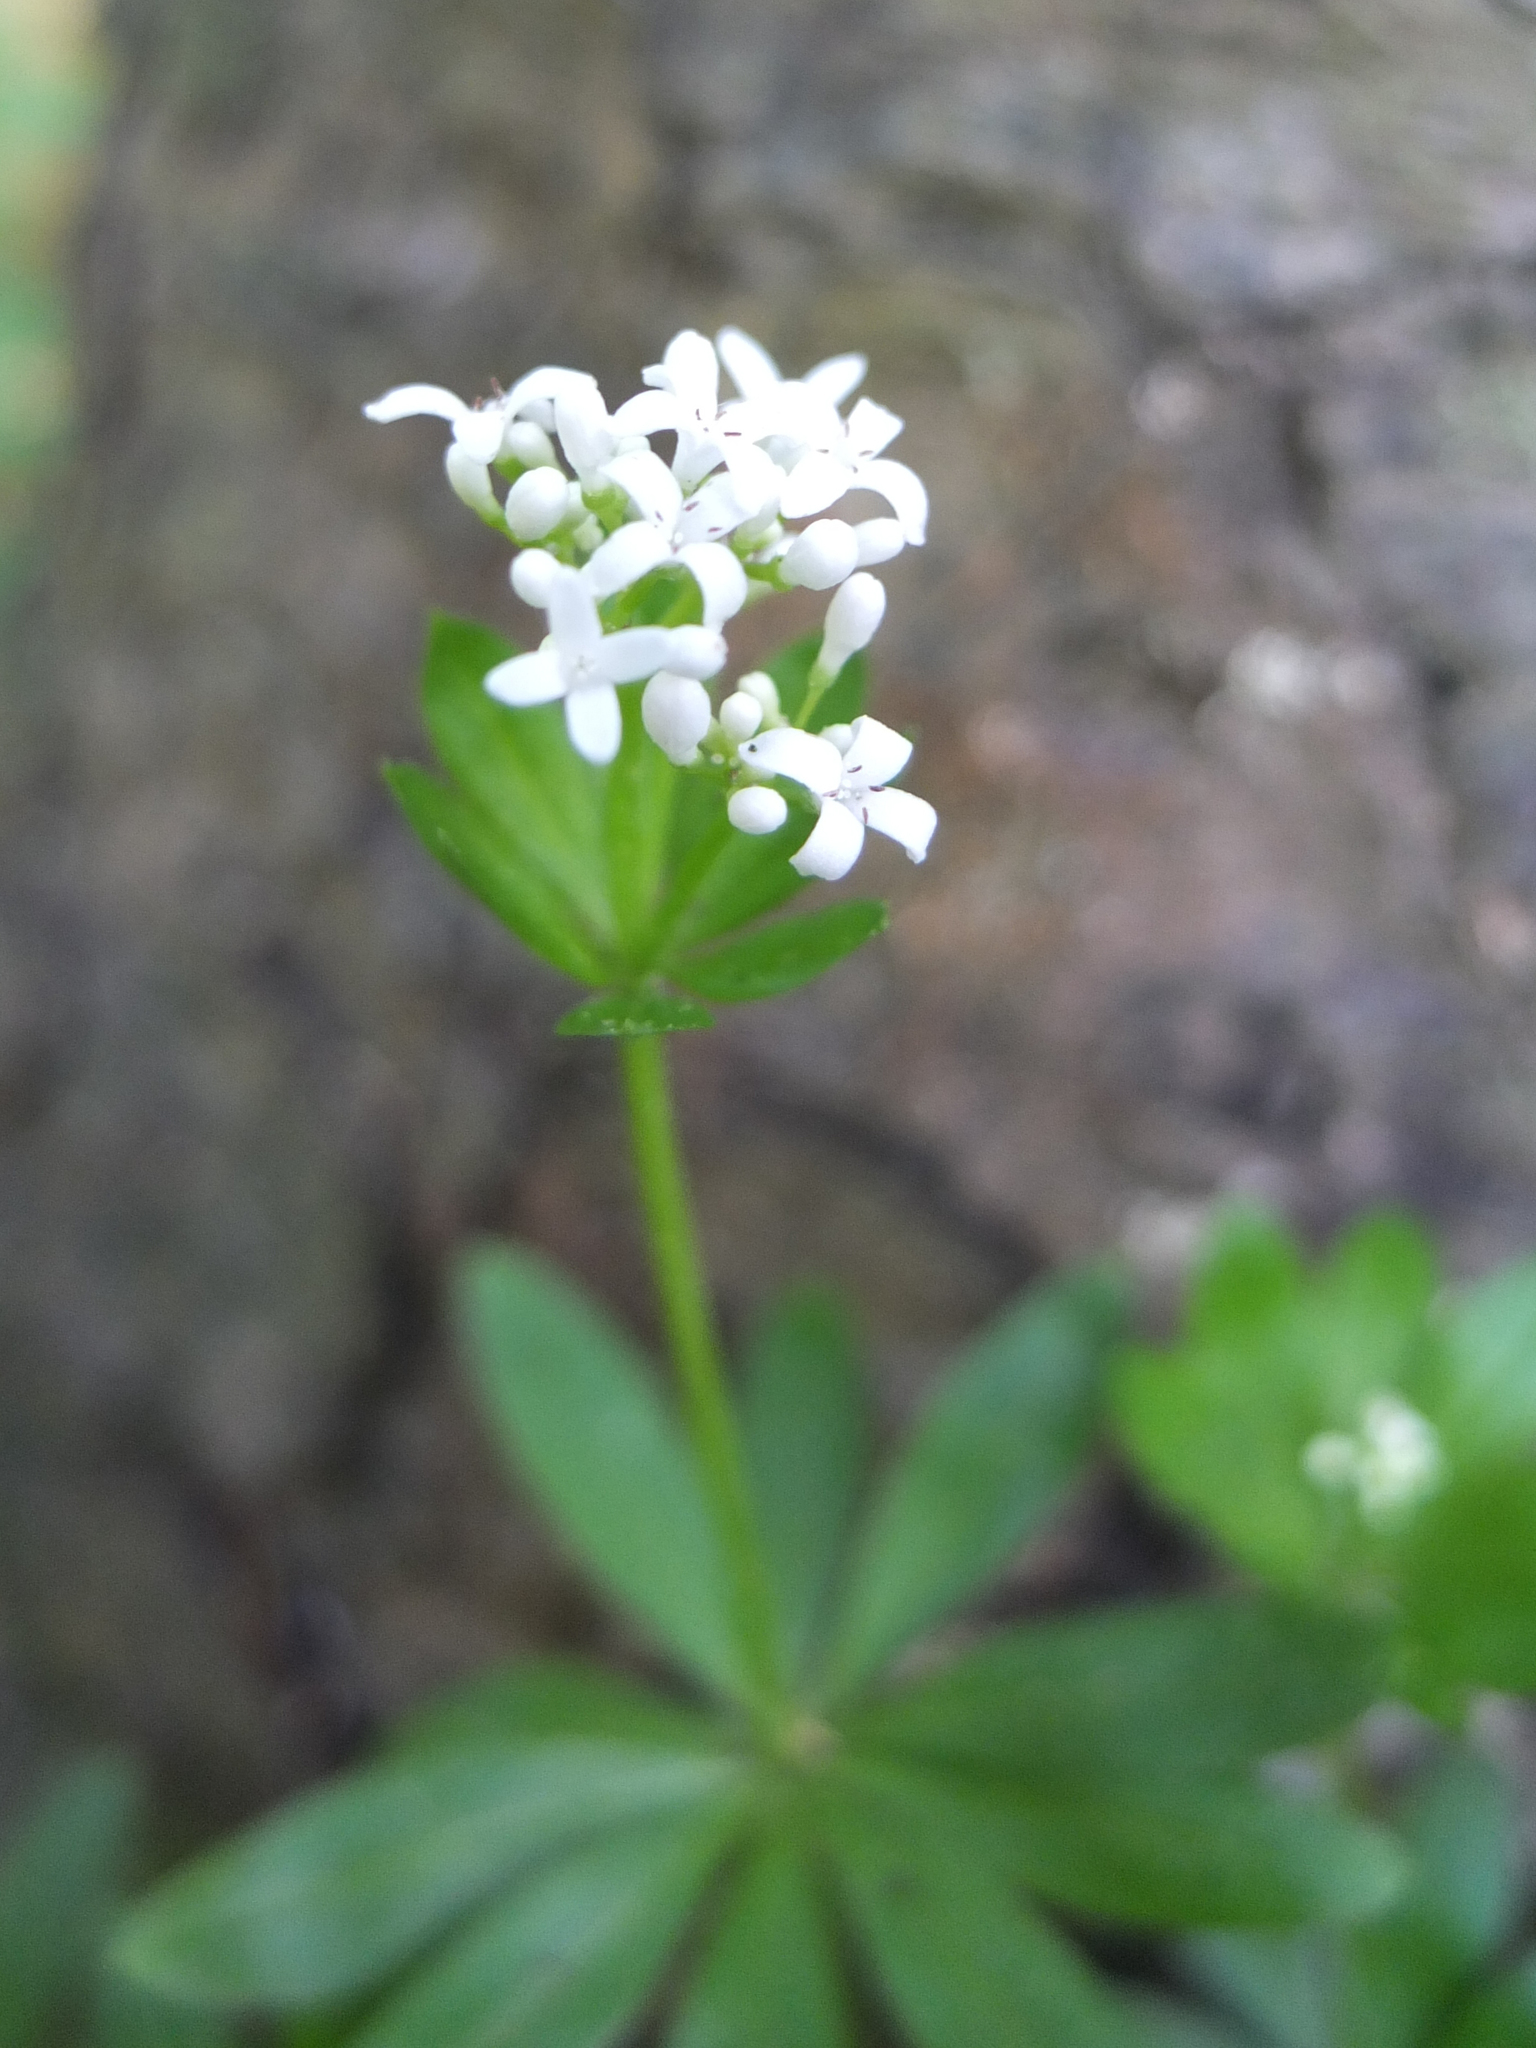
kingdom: Plantae
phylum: Tracheophyta
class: Magnoliopsida
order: Gentianales
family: Rubiaceae
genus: Galium
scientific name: Galium odoratum
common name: Sweet woodruff
